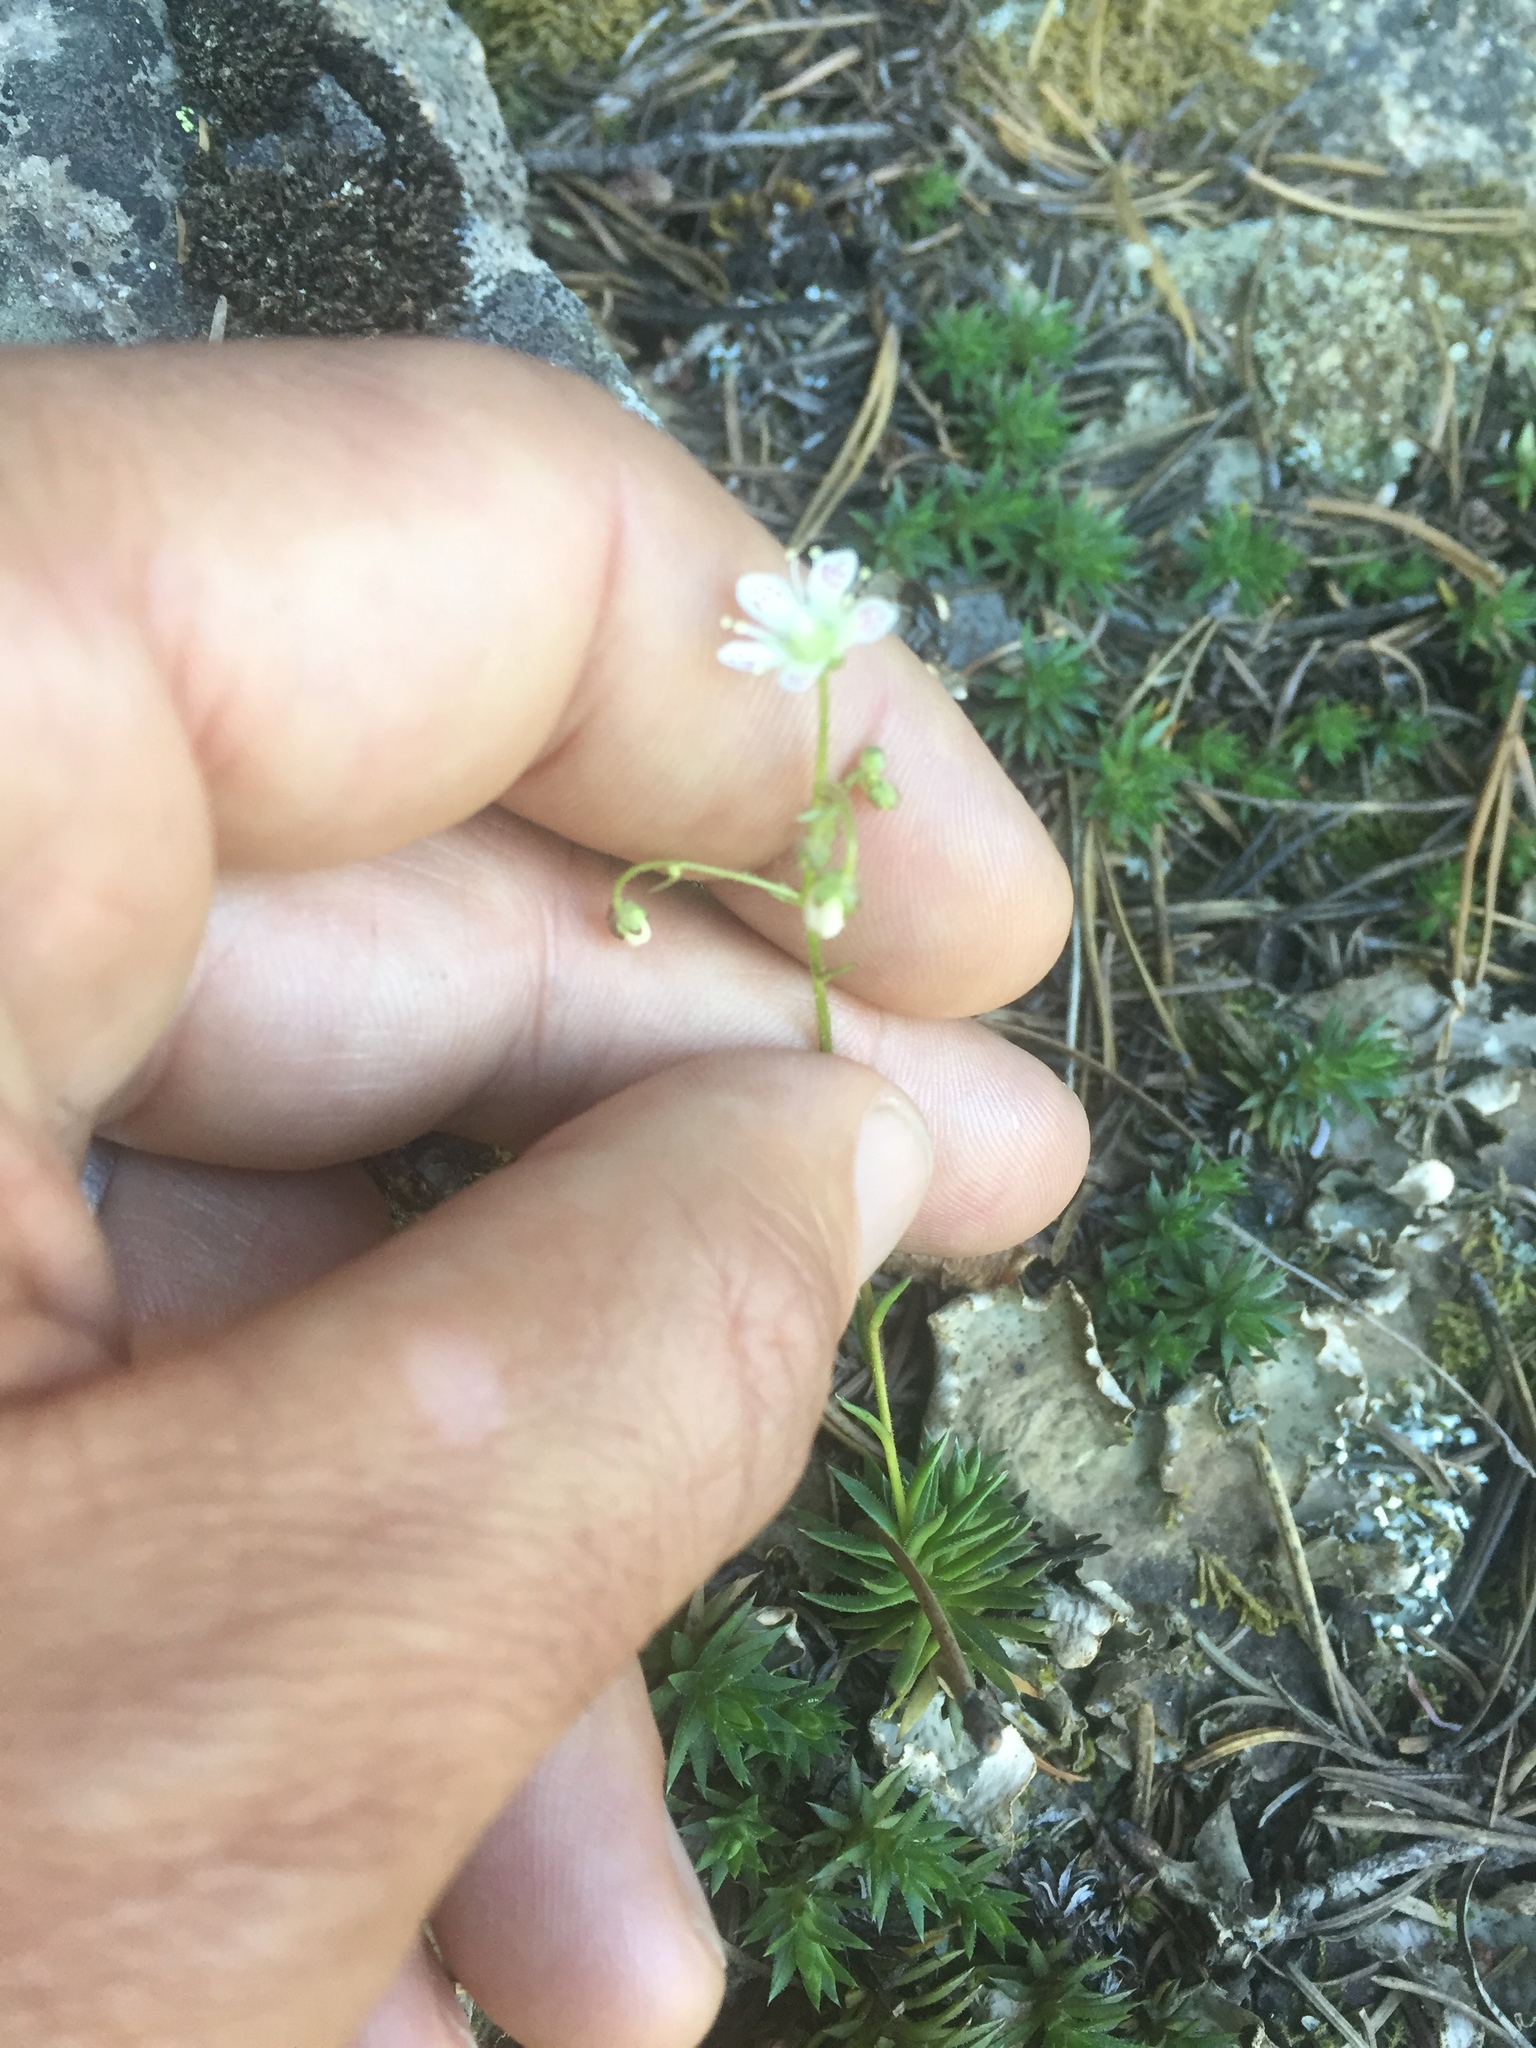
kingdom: Plantae
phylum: Tracheophyta
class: Magnoliopsida
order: Saxifragales
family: Saxifragaceae
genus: Saxifraga
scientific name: Saxifraga bronchialis
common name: Matted saxifrage
